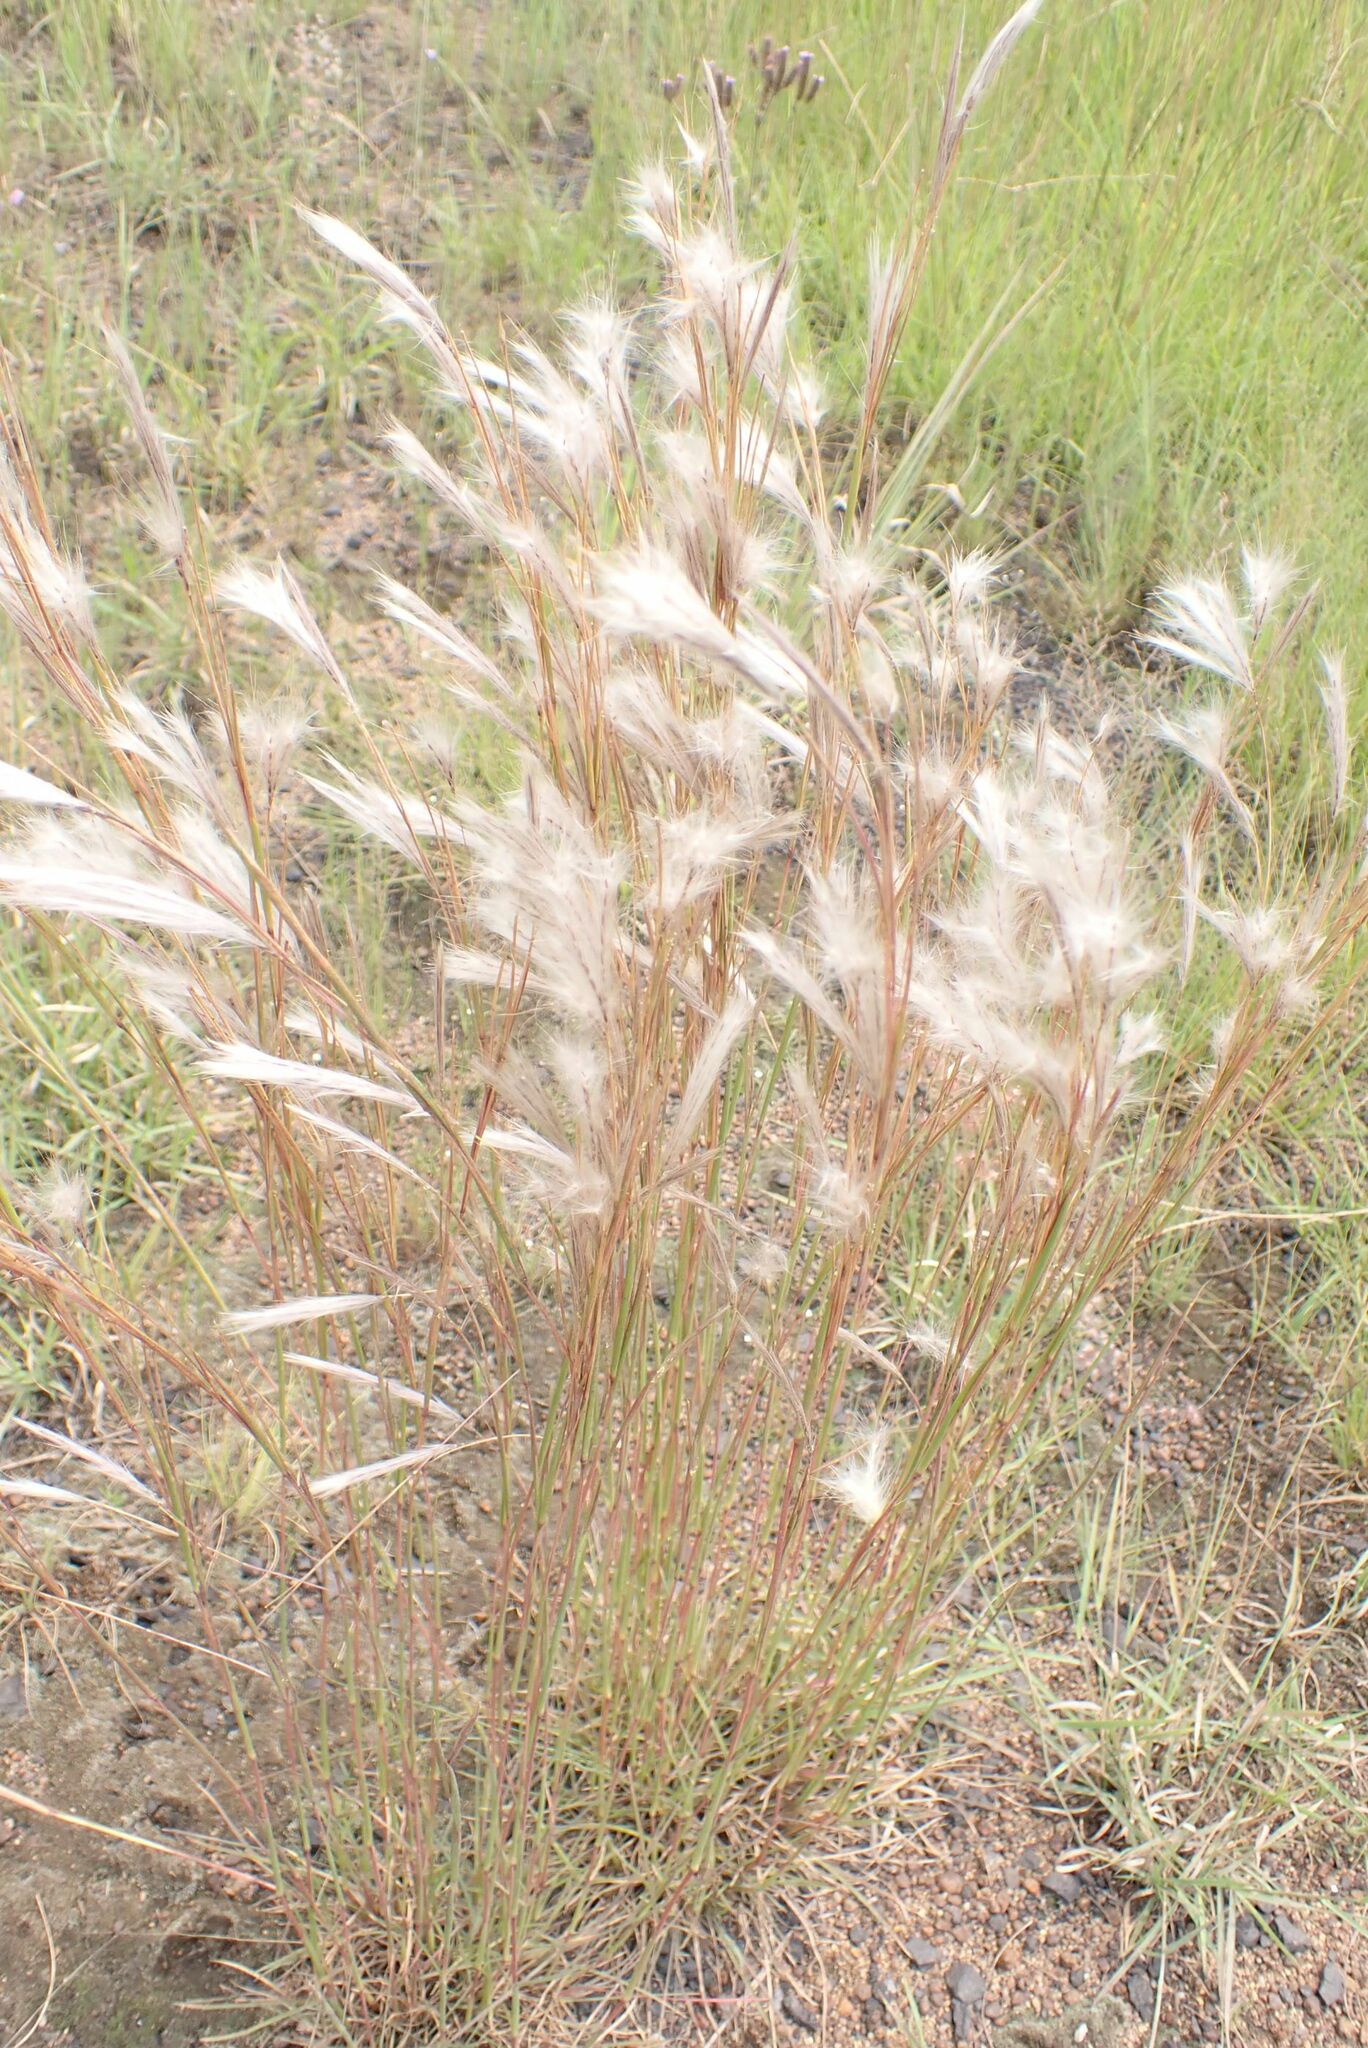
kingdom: Plantae
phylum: Tracheophyta
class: Liliopsida
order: Poales
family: Poaceae
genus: Andropogon
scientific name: Andropogon eucomus
